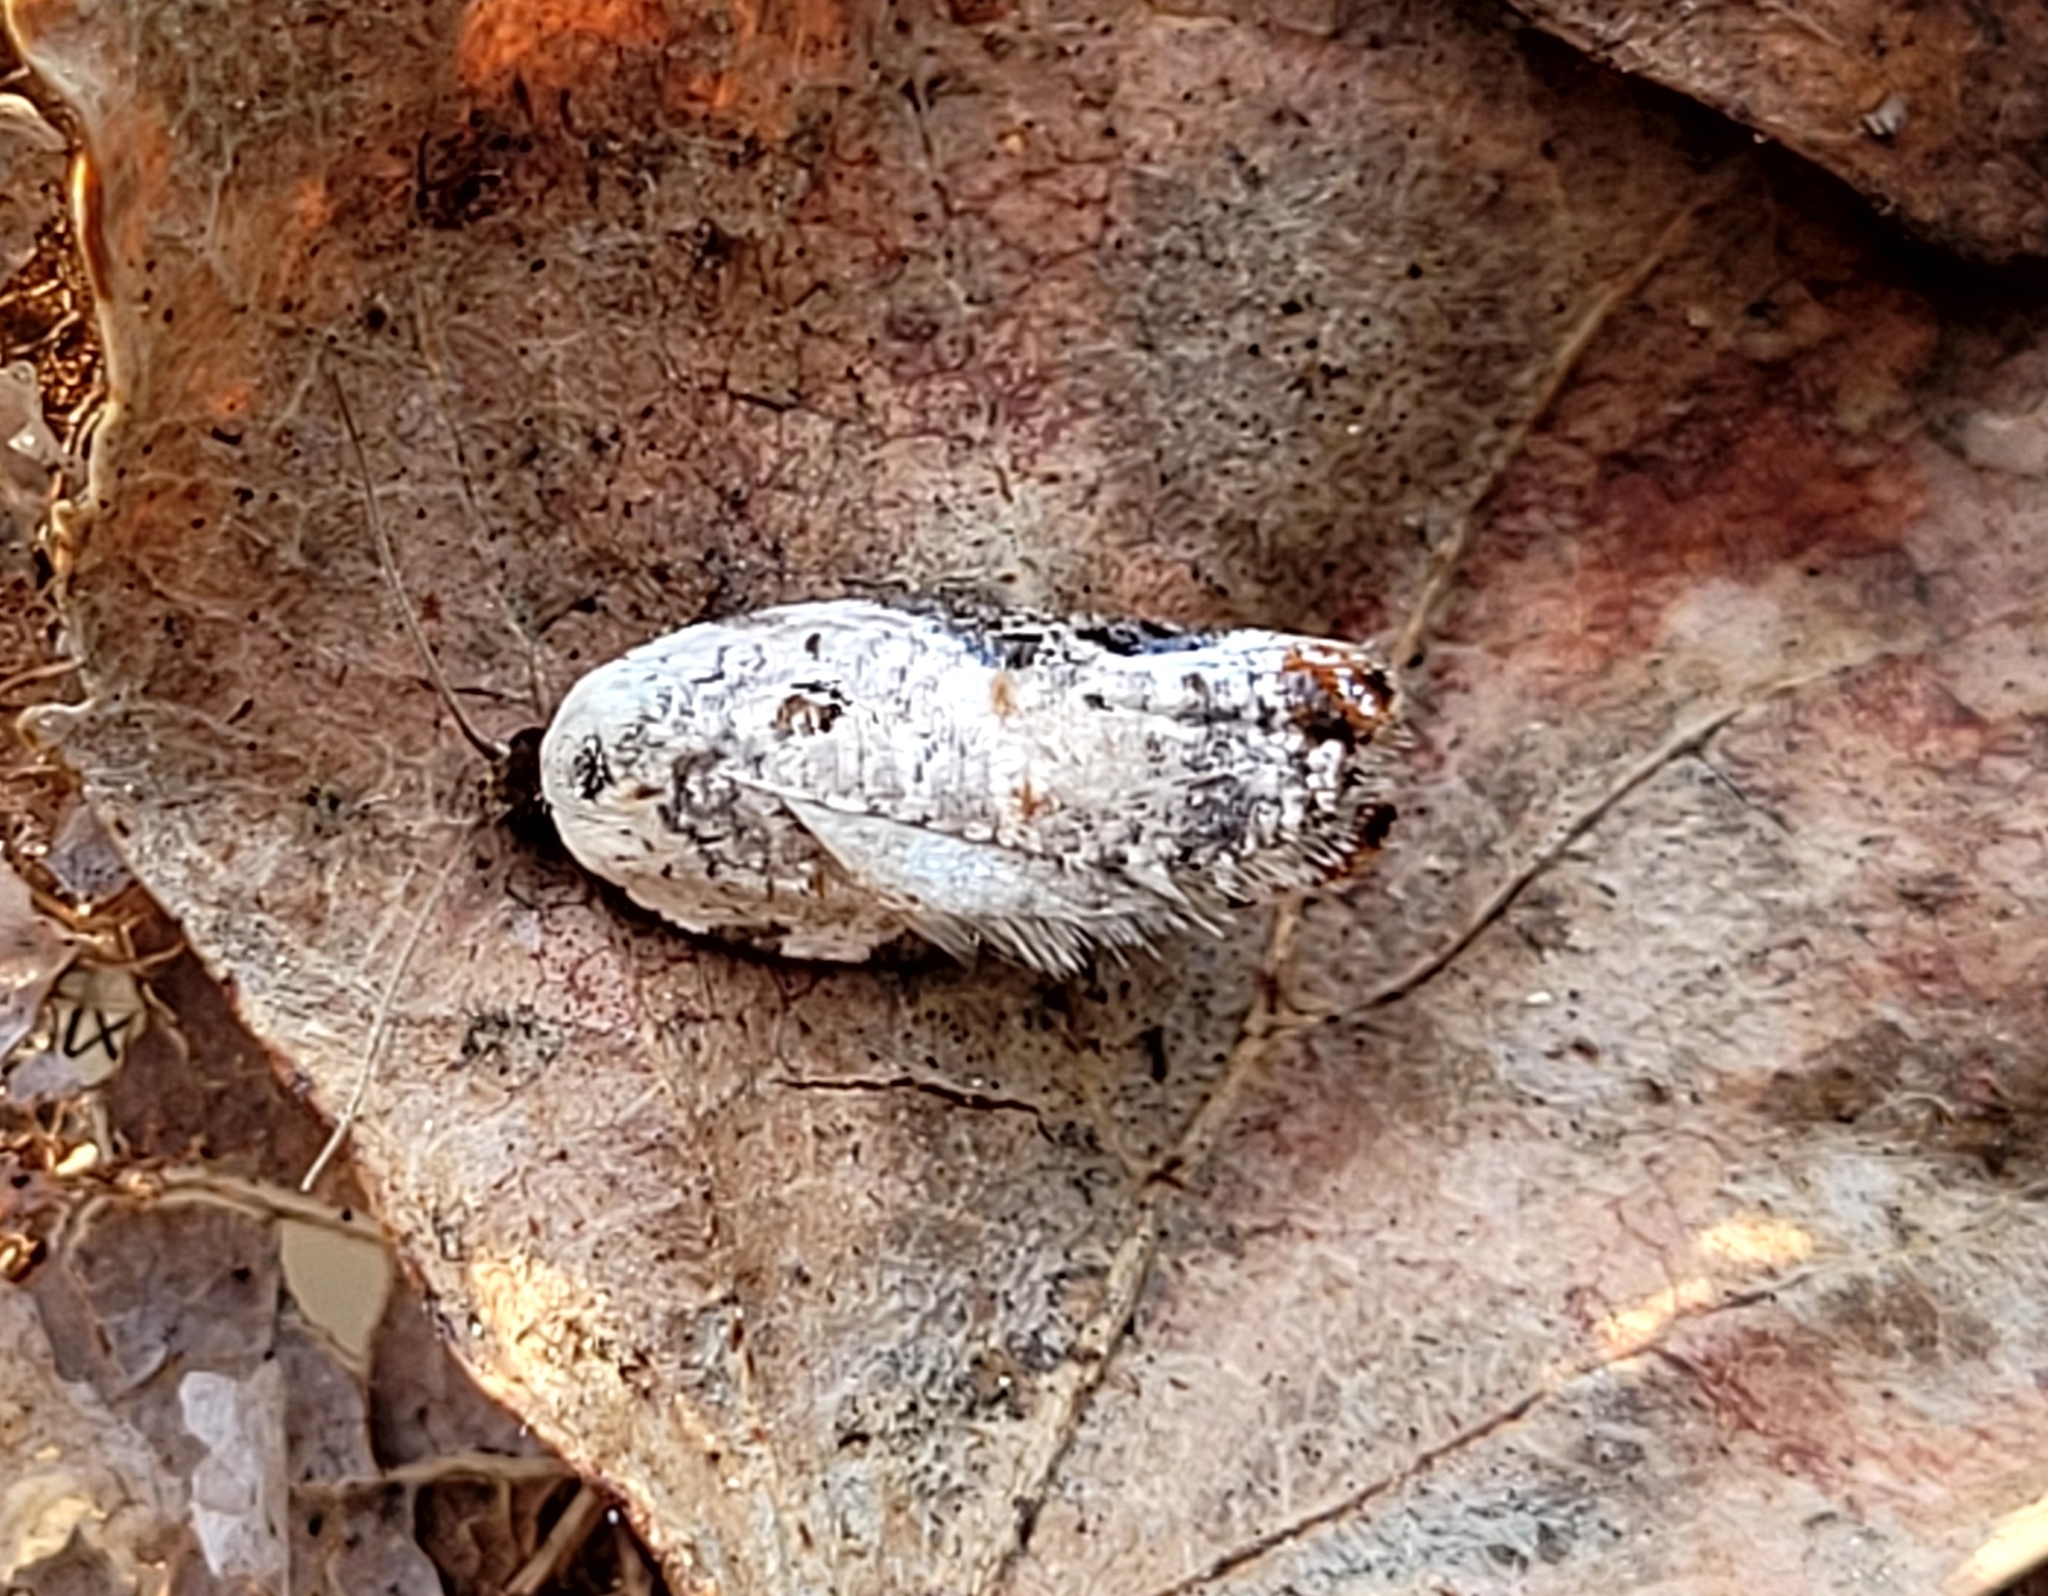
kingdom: Animalia
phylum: Arthropoda
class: Insecta
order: Lepidoptera
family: Tortricidae
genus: Acleris
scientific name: Acleris nivisellana
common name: Snowy-shouldered acleris moth
